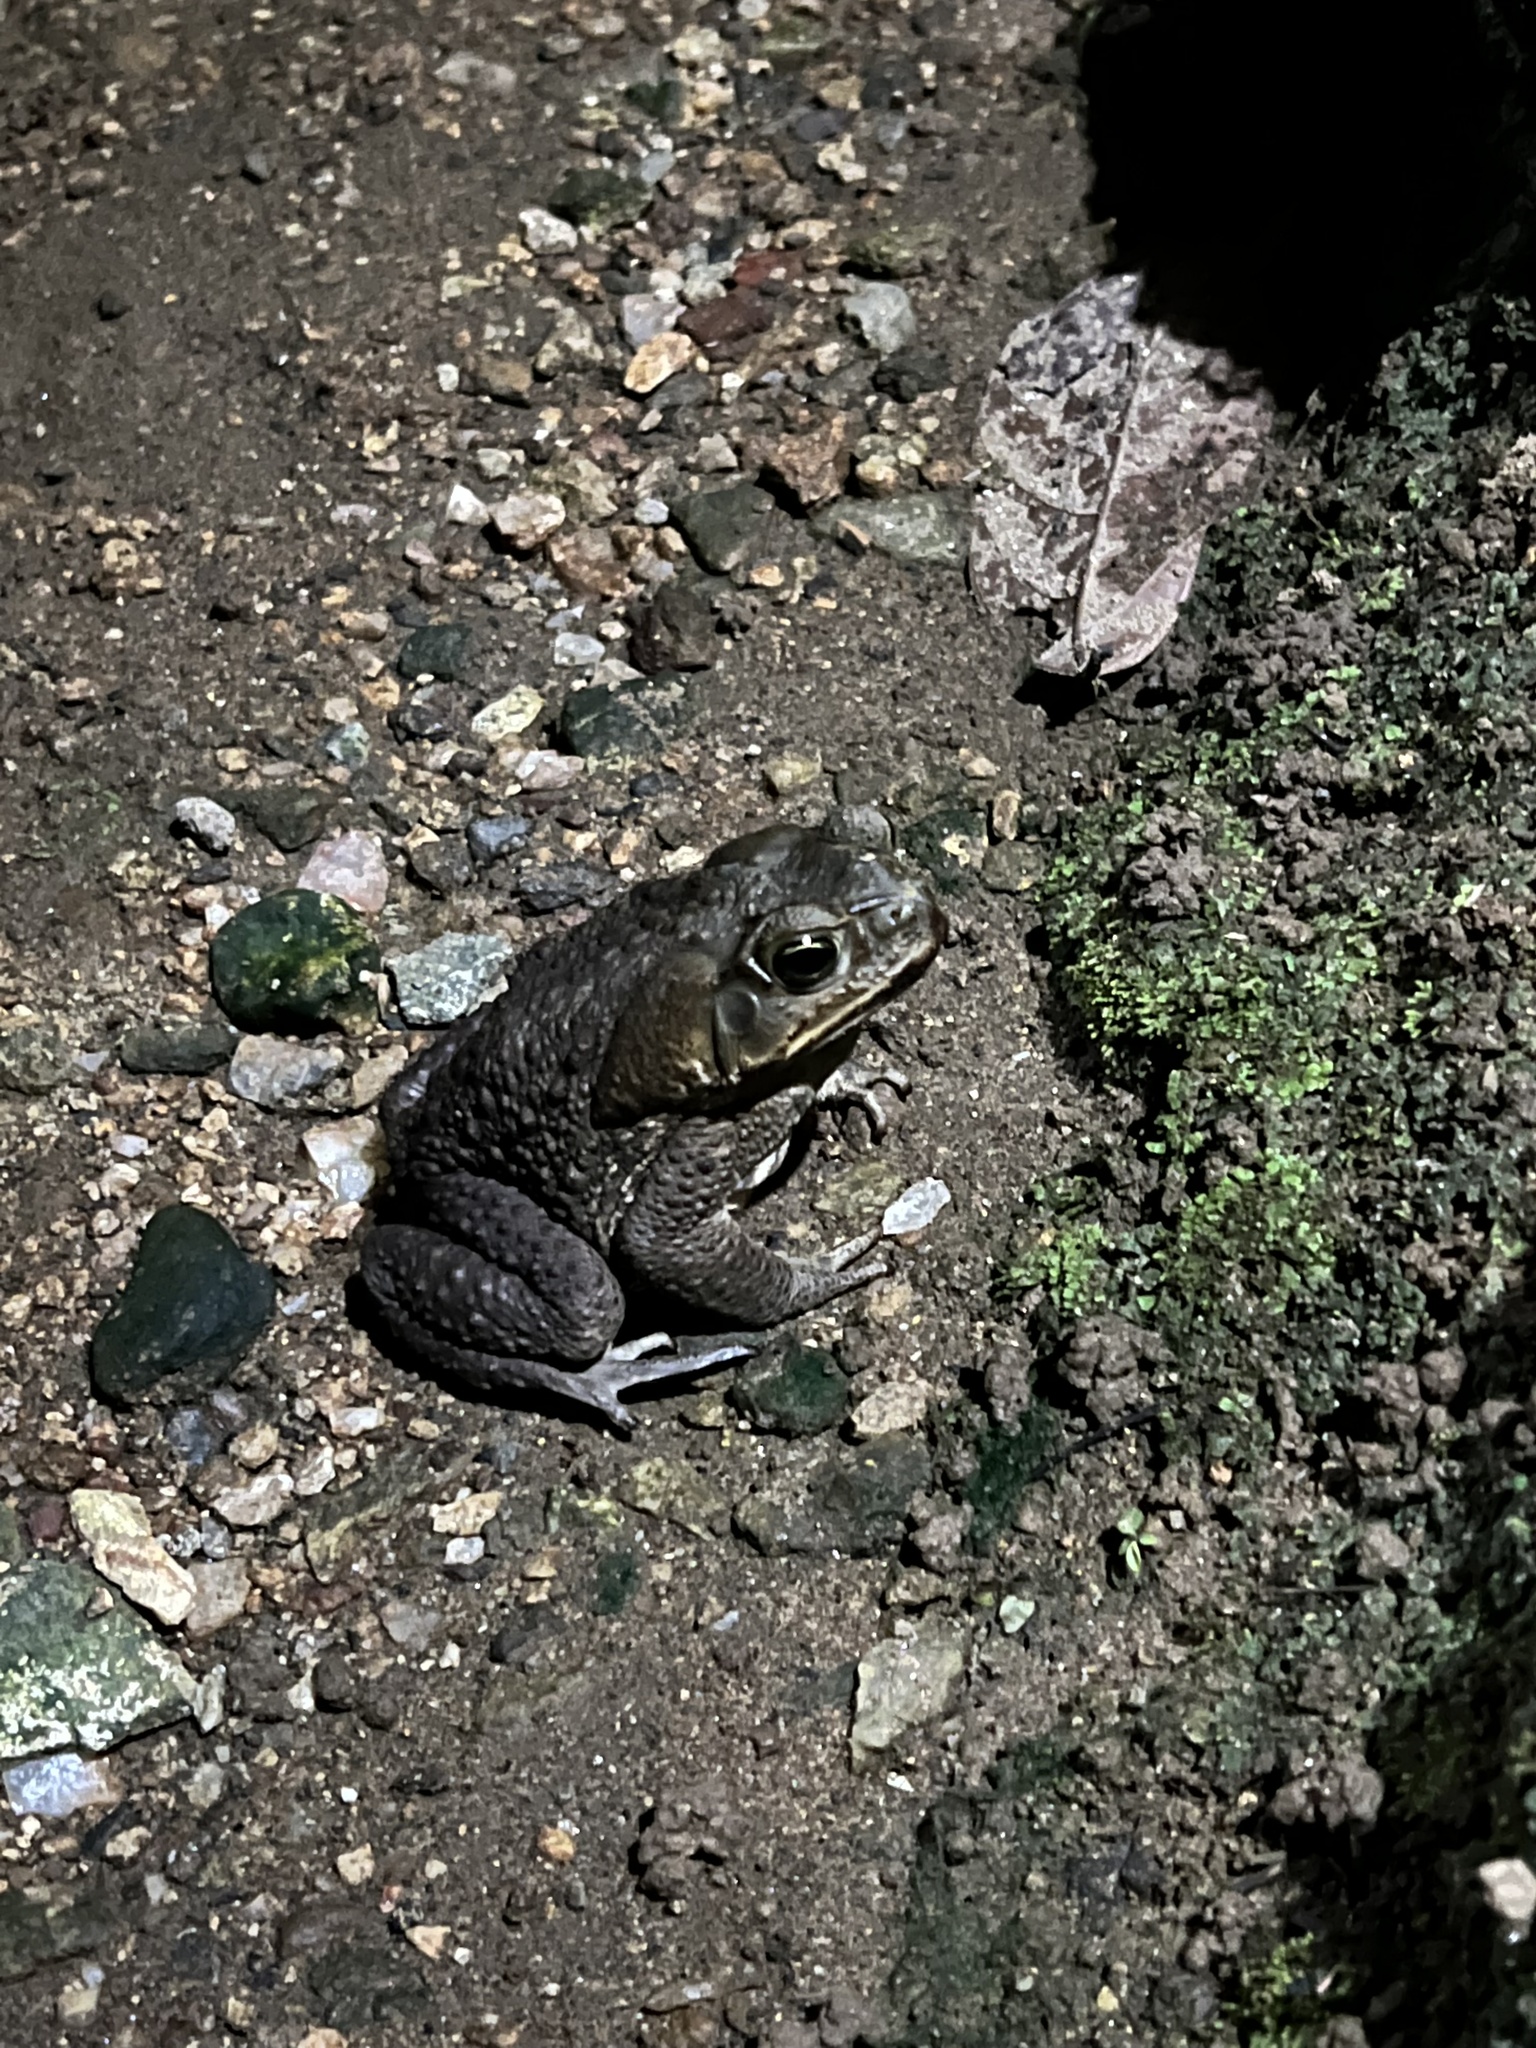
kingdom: Animalia
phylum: Chordata
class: Amphibia
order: Anura
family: Bufonidae
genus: Rhinella
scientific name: Rhinella horribilis
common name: Mesoamerican cane toad
